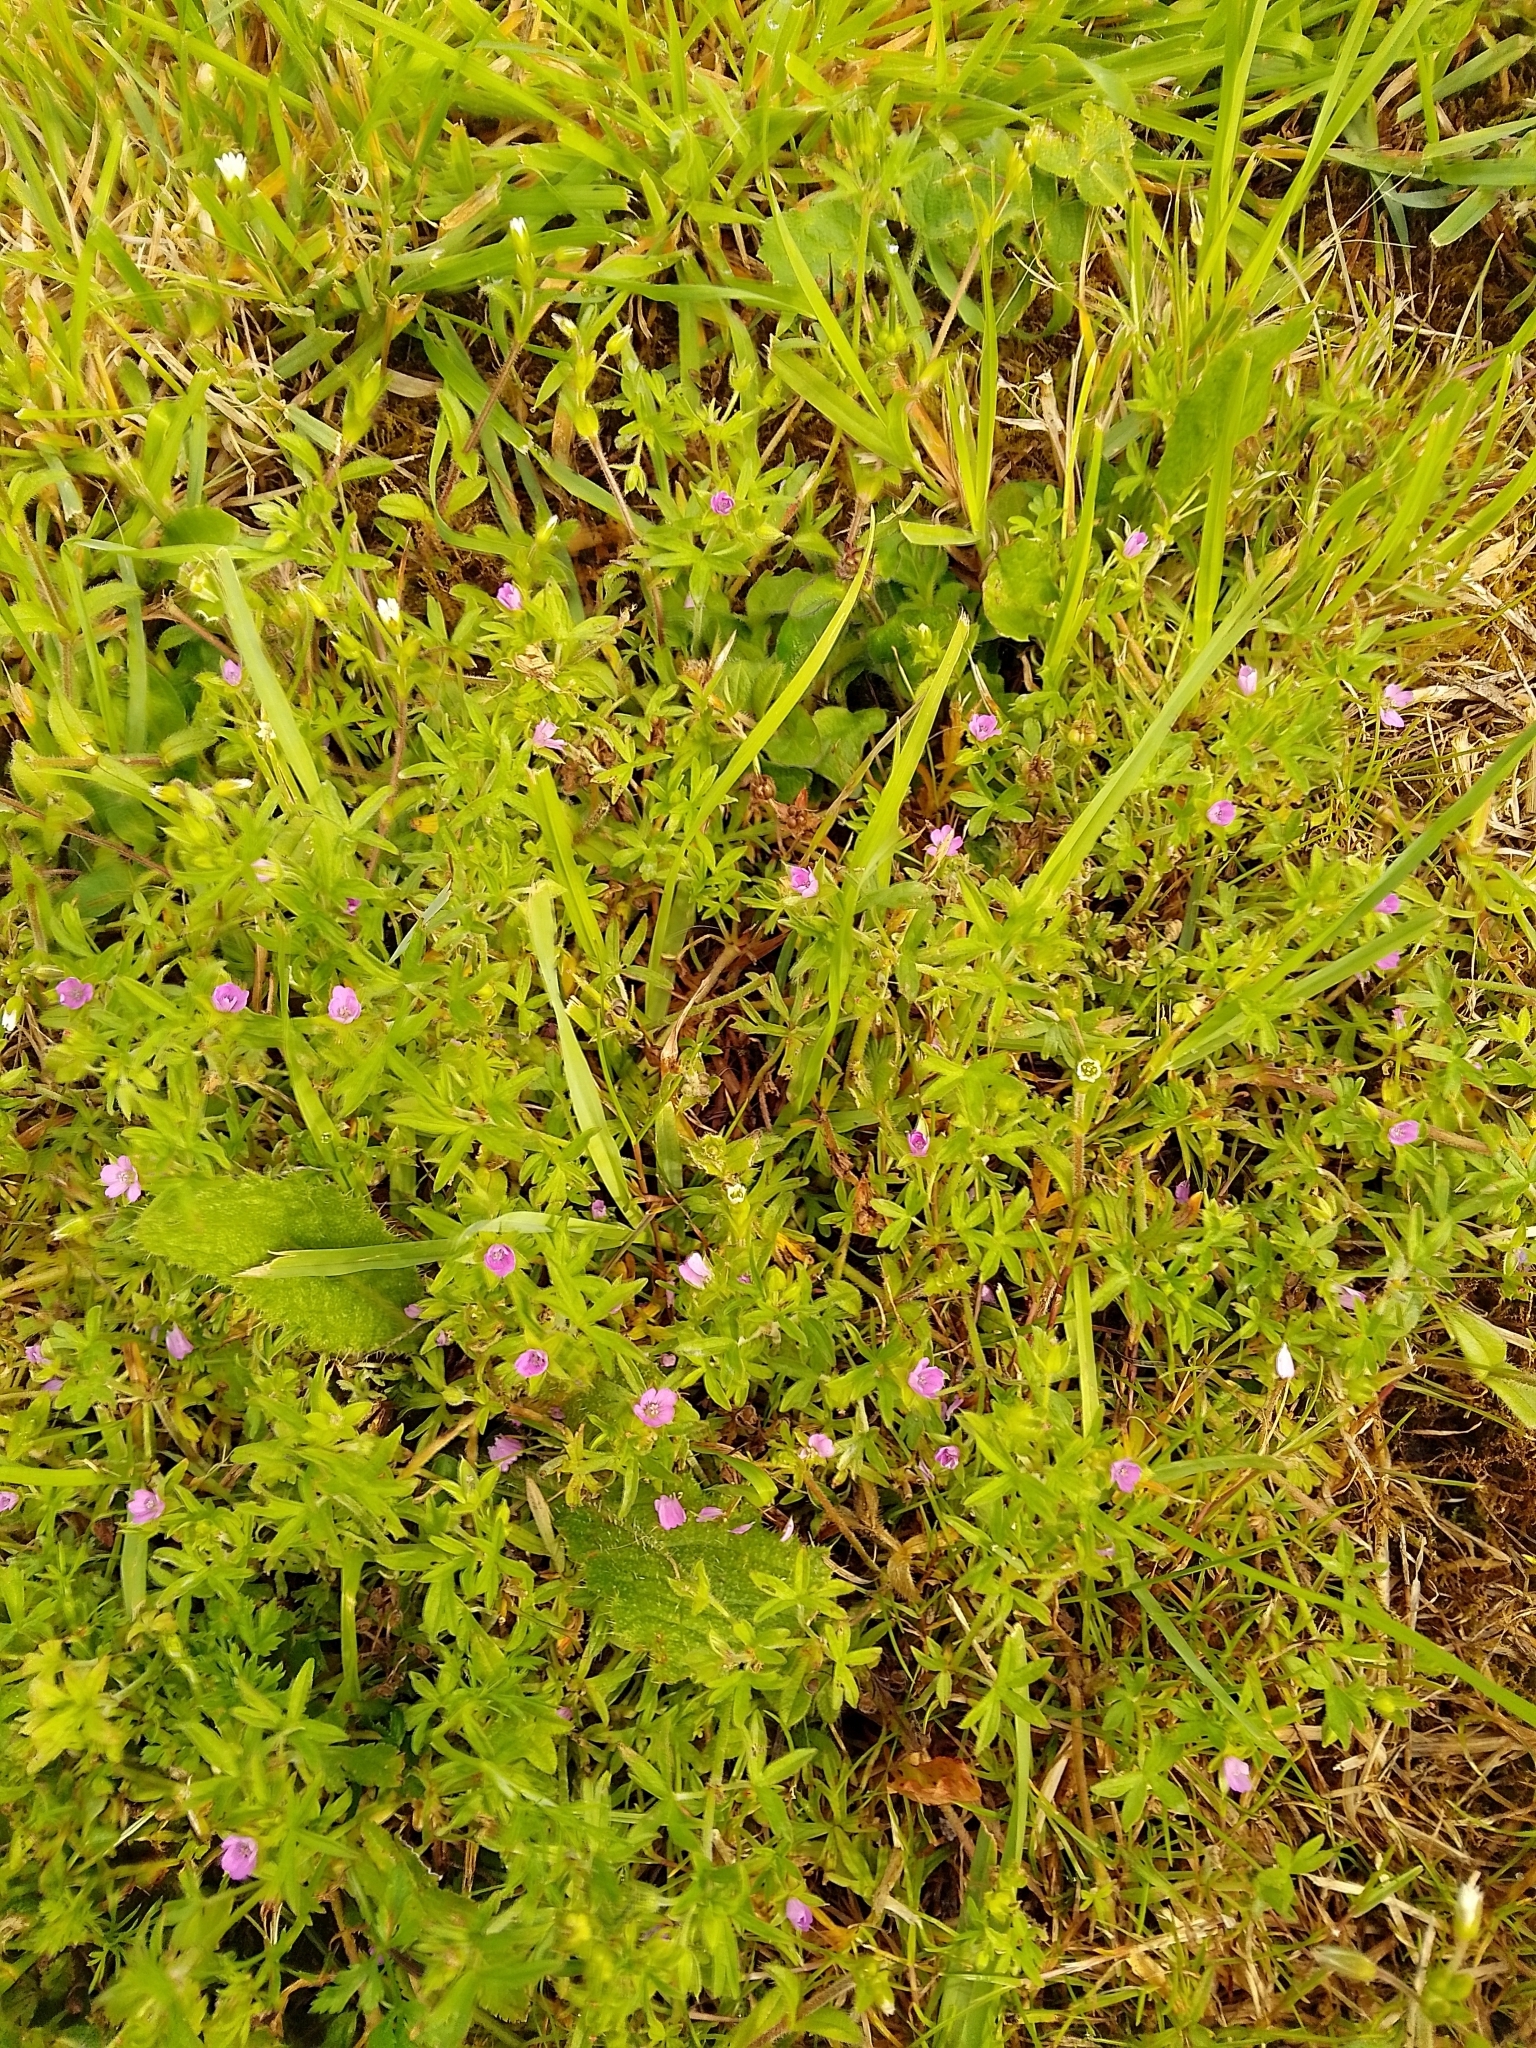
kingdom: Plantae
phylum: Tracheophyta
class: Magnoliopsida
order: Geraniales
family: Geraniaceae
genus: Geranium
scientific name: Geranium dissectum
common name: Cut-leaved crane's-bill
